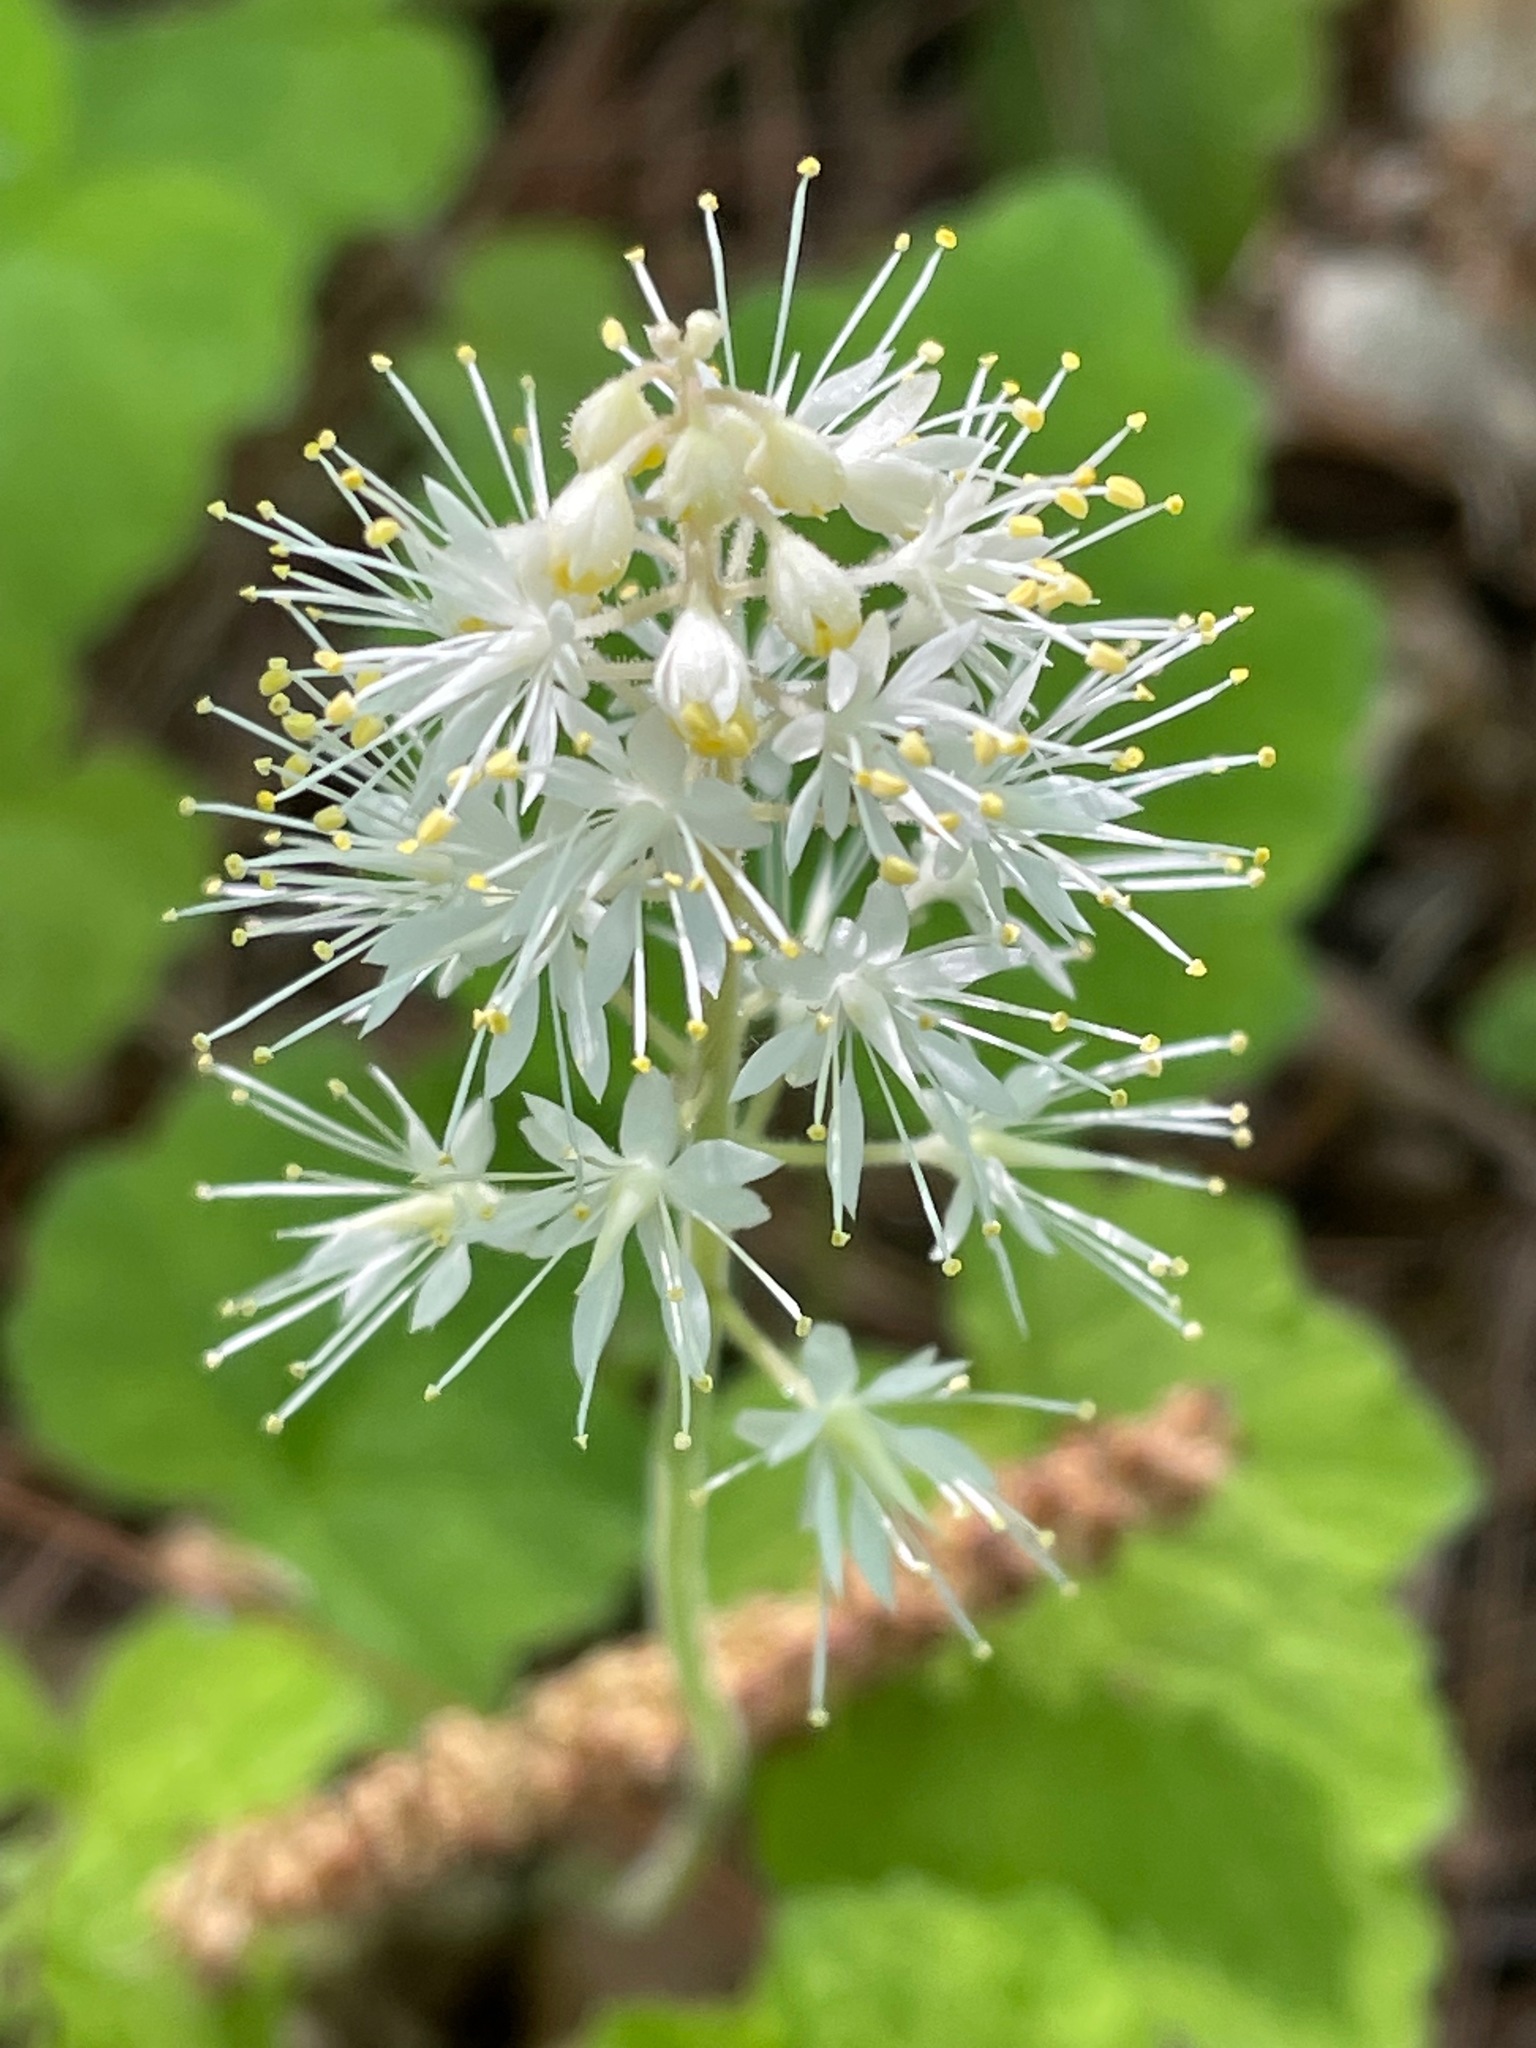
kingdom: Plantae
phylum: Tracheophyta
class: Magnoliopsida
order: Saxifragales
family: Saxifragaceae
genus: Tiarella
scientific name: Tiarella stolonifera
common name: Stoloniferous foamflower
